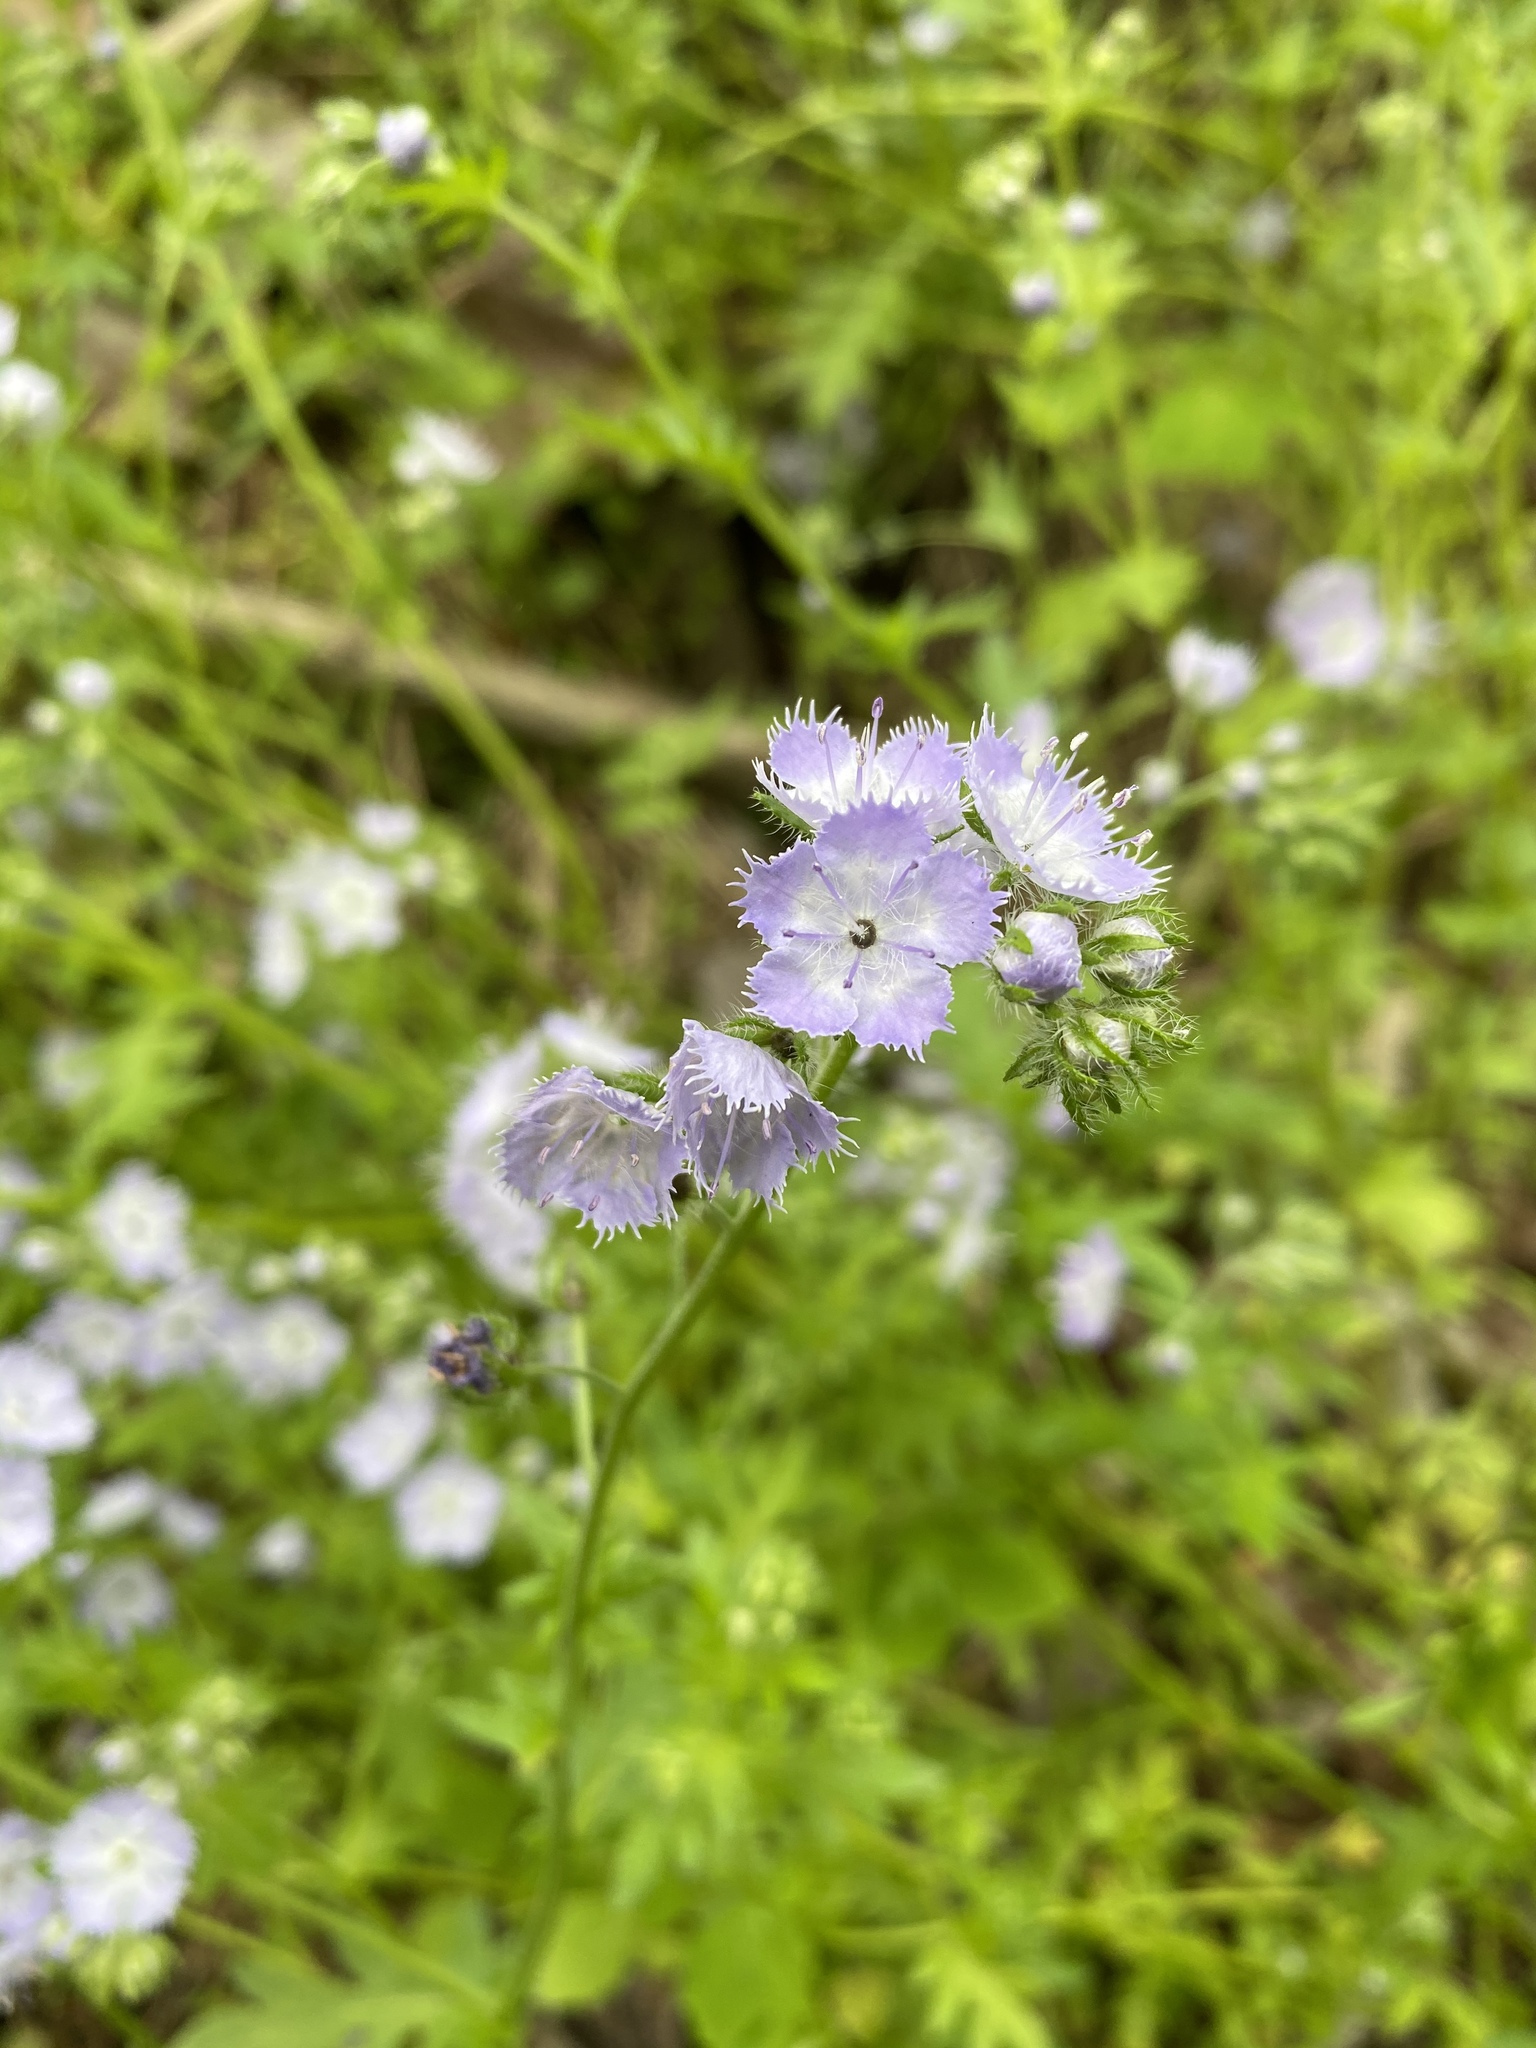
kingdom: Plantae
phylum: Tracheophyta
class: Magnoliopsida
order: Boraginales
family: Hydrophyllaceae
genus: Phacelia
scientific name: Phacelia purshii
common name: Miami-mist
